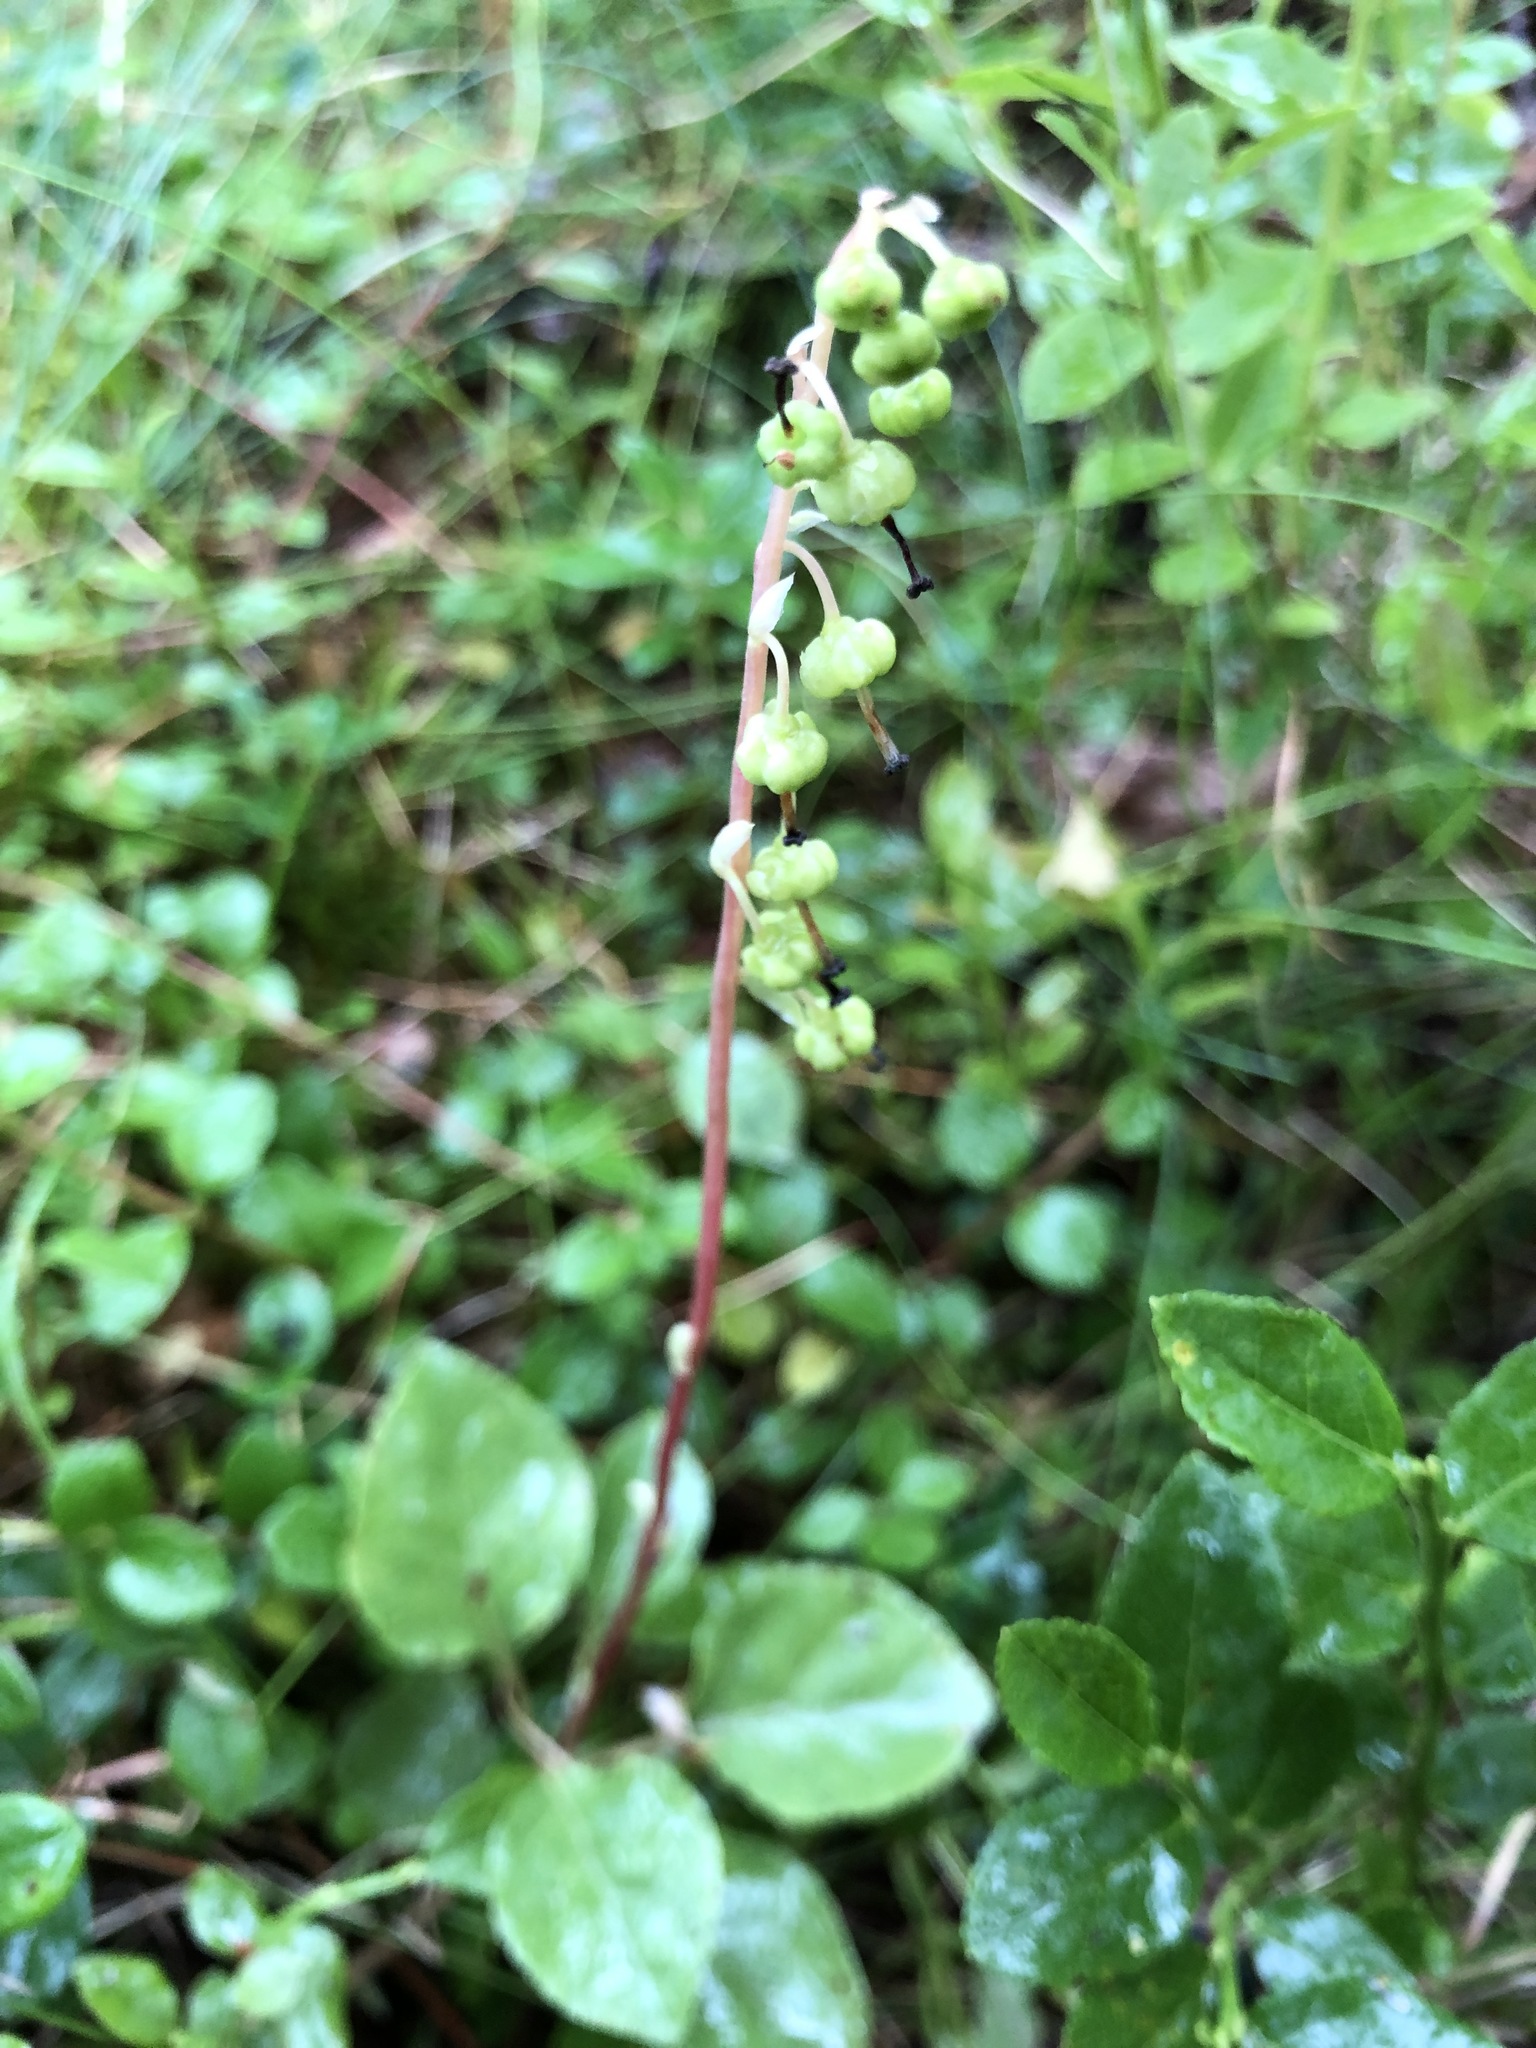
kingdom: Plantae
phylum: Tracheophyta
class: Magnoliopsida
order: Ericales
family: Ericaceae
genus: Orthilia
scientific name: Orthilia secunda
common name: One-sided orthilia
